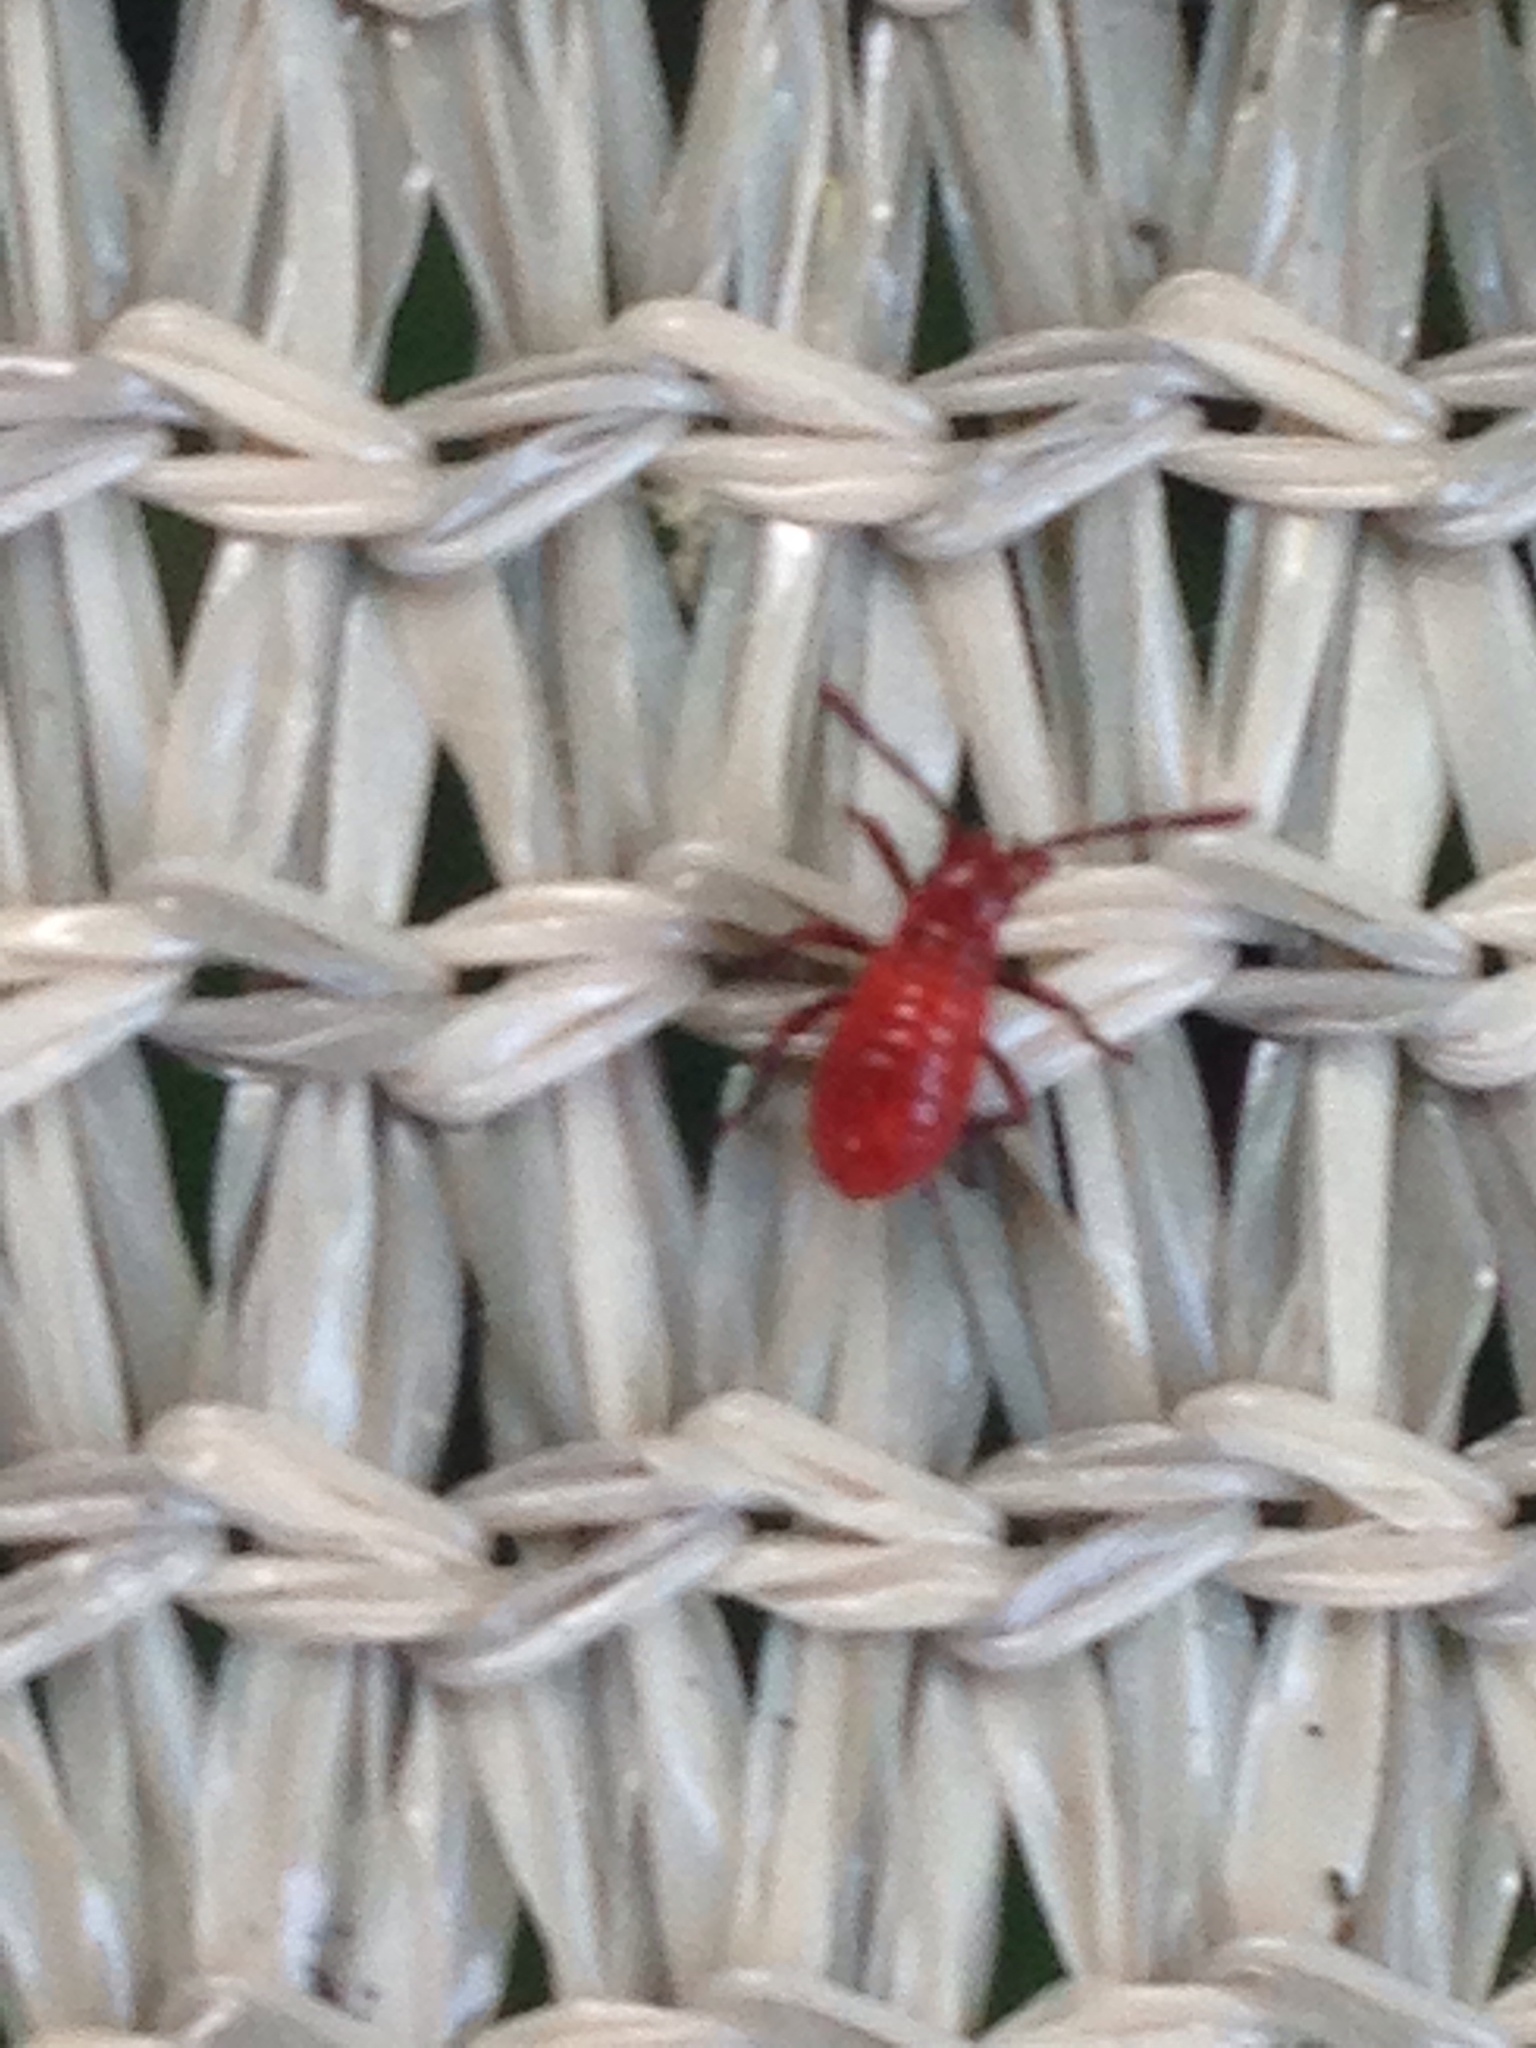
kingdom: Animalia
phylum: Arthropoda
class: Insecta
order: Hemiptera
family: Rhopalidae
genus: Boisea
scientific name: Boisea trivittata
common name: Boxelder bug
